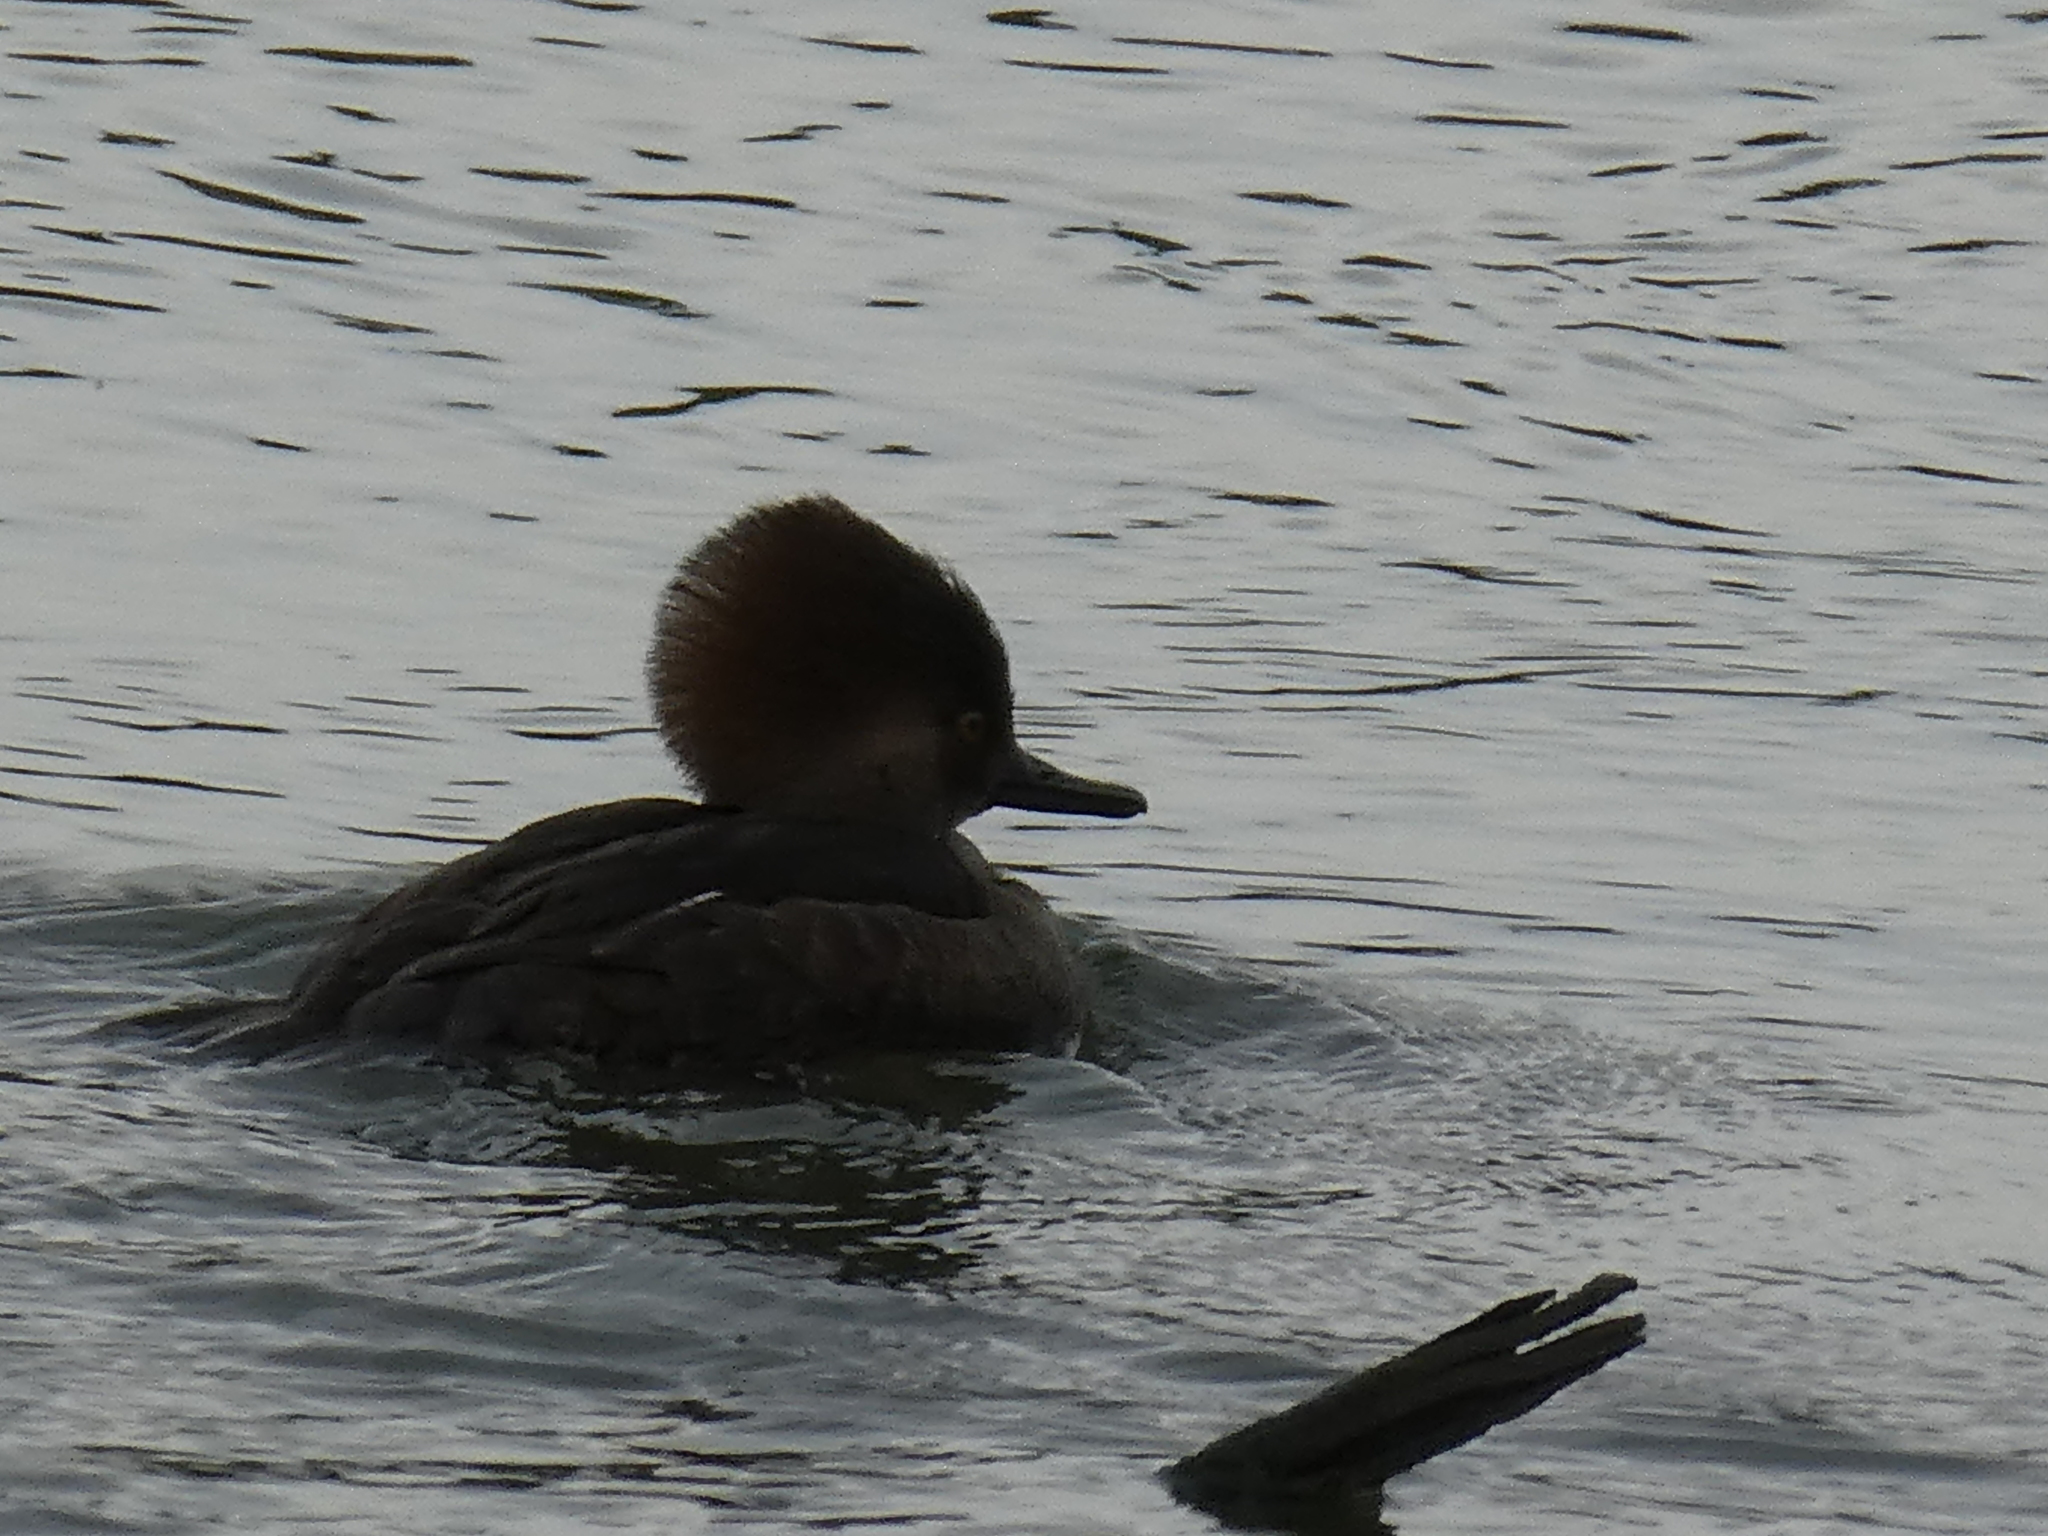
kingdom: Animalia
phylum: Chordata
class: Aves
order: Anseriformes
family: Anatidae
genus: Lophodytes
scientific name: Lophodytes cucullatus
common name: Hooded merganser
